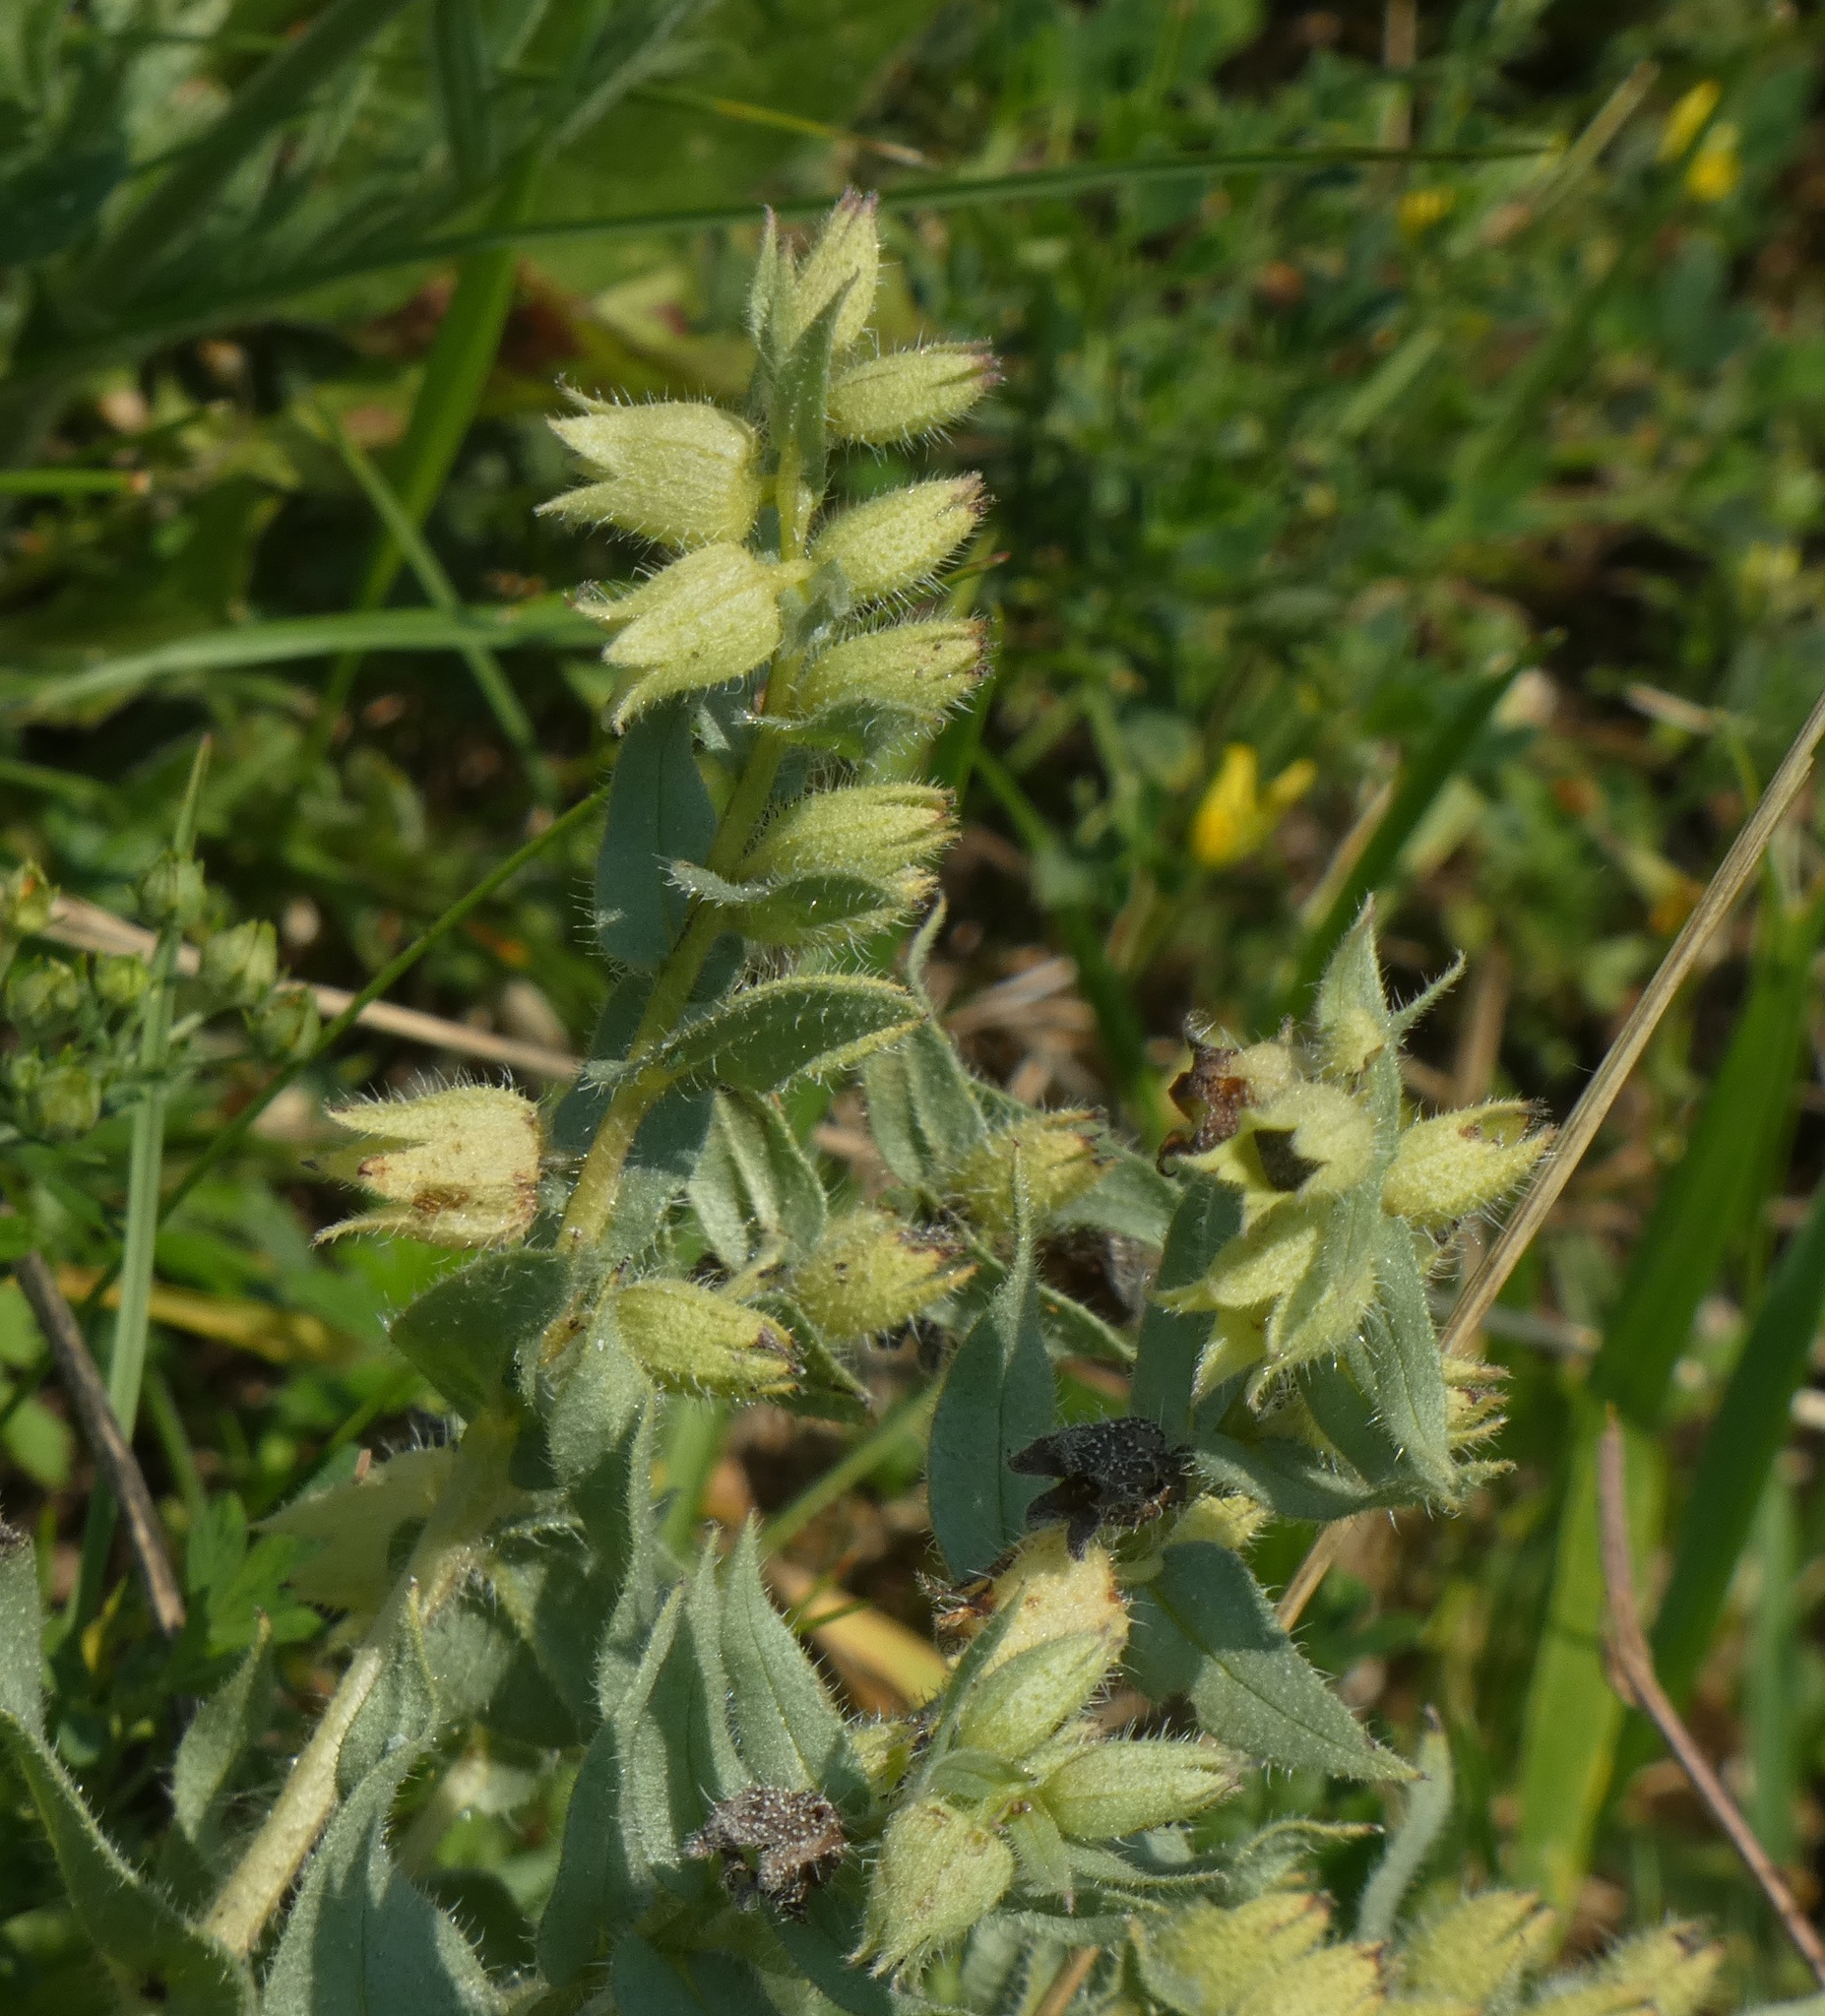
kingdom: Plantae
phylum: Tracheophyta
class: Magnoliopsida
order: Boraginales
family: Boraginaceae
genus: Nonea
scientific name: Nonea pulla
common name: Brown nonea
